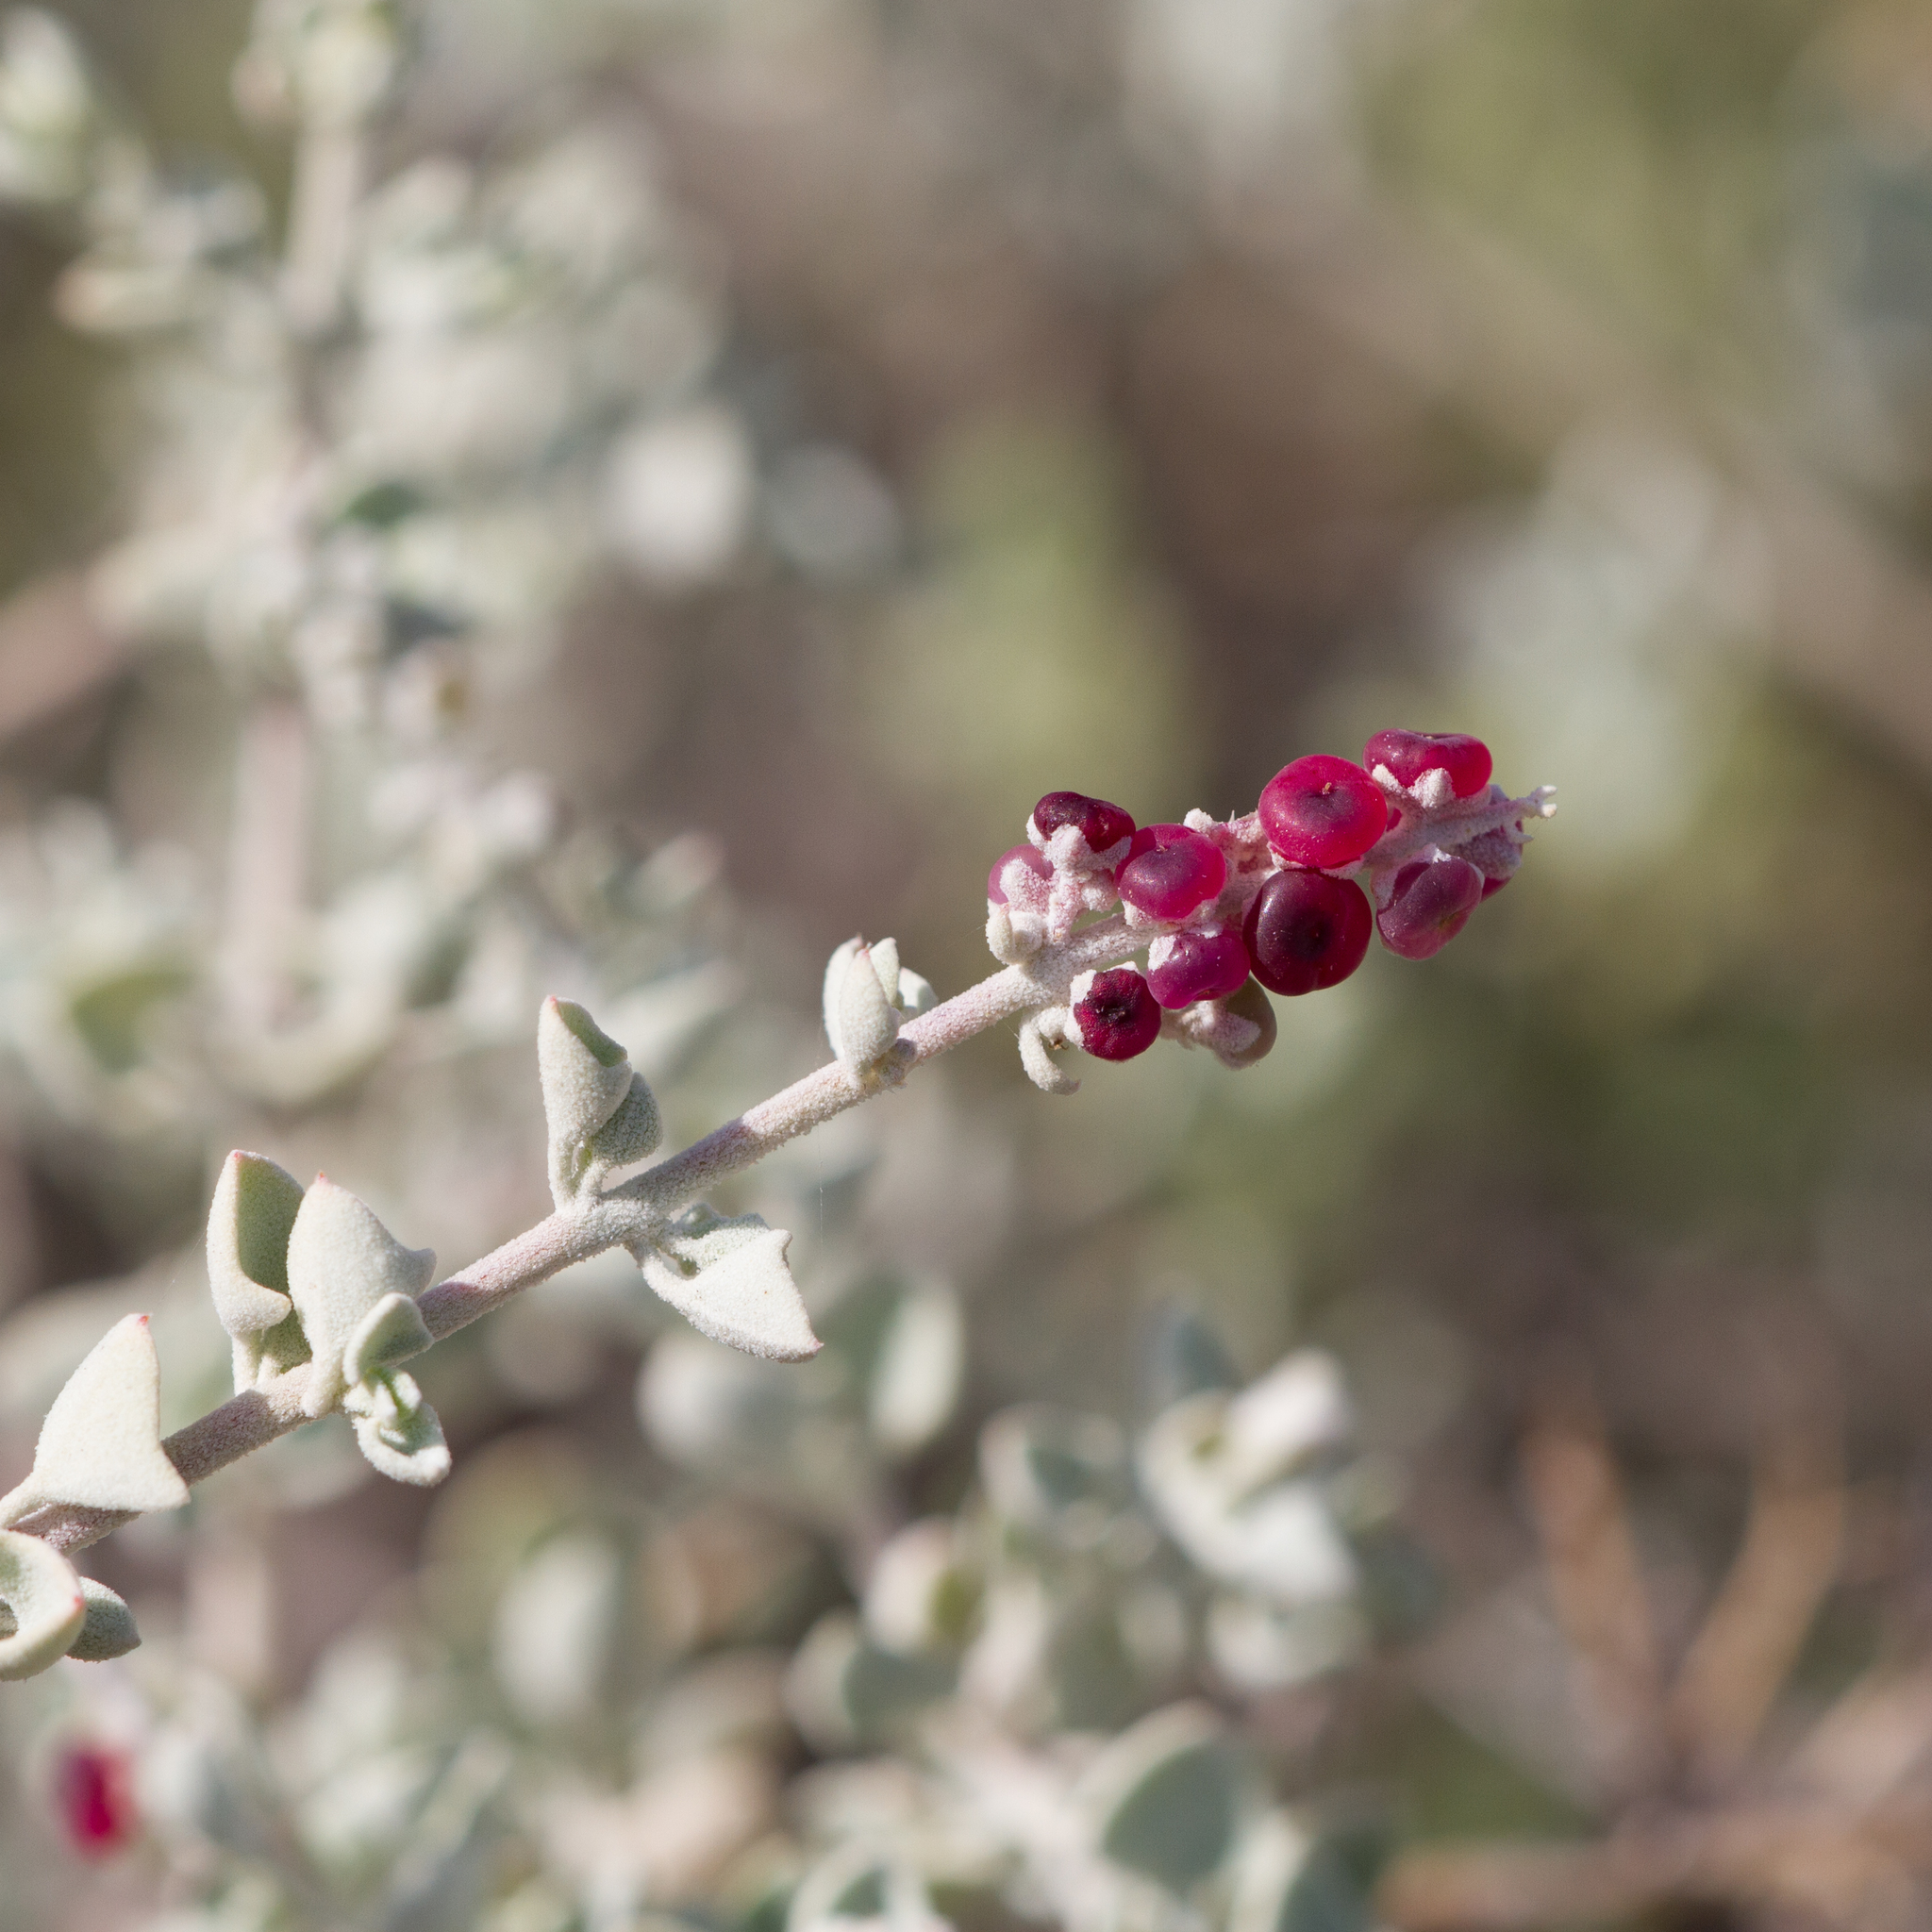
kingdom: Plantae
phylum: Tracheophyta
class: Magnoliopsida
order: Caryophyllales
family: Amaranthaceae
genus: Chenopodium
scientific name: Chenopodium spinescens
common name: Berry-saltbush
